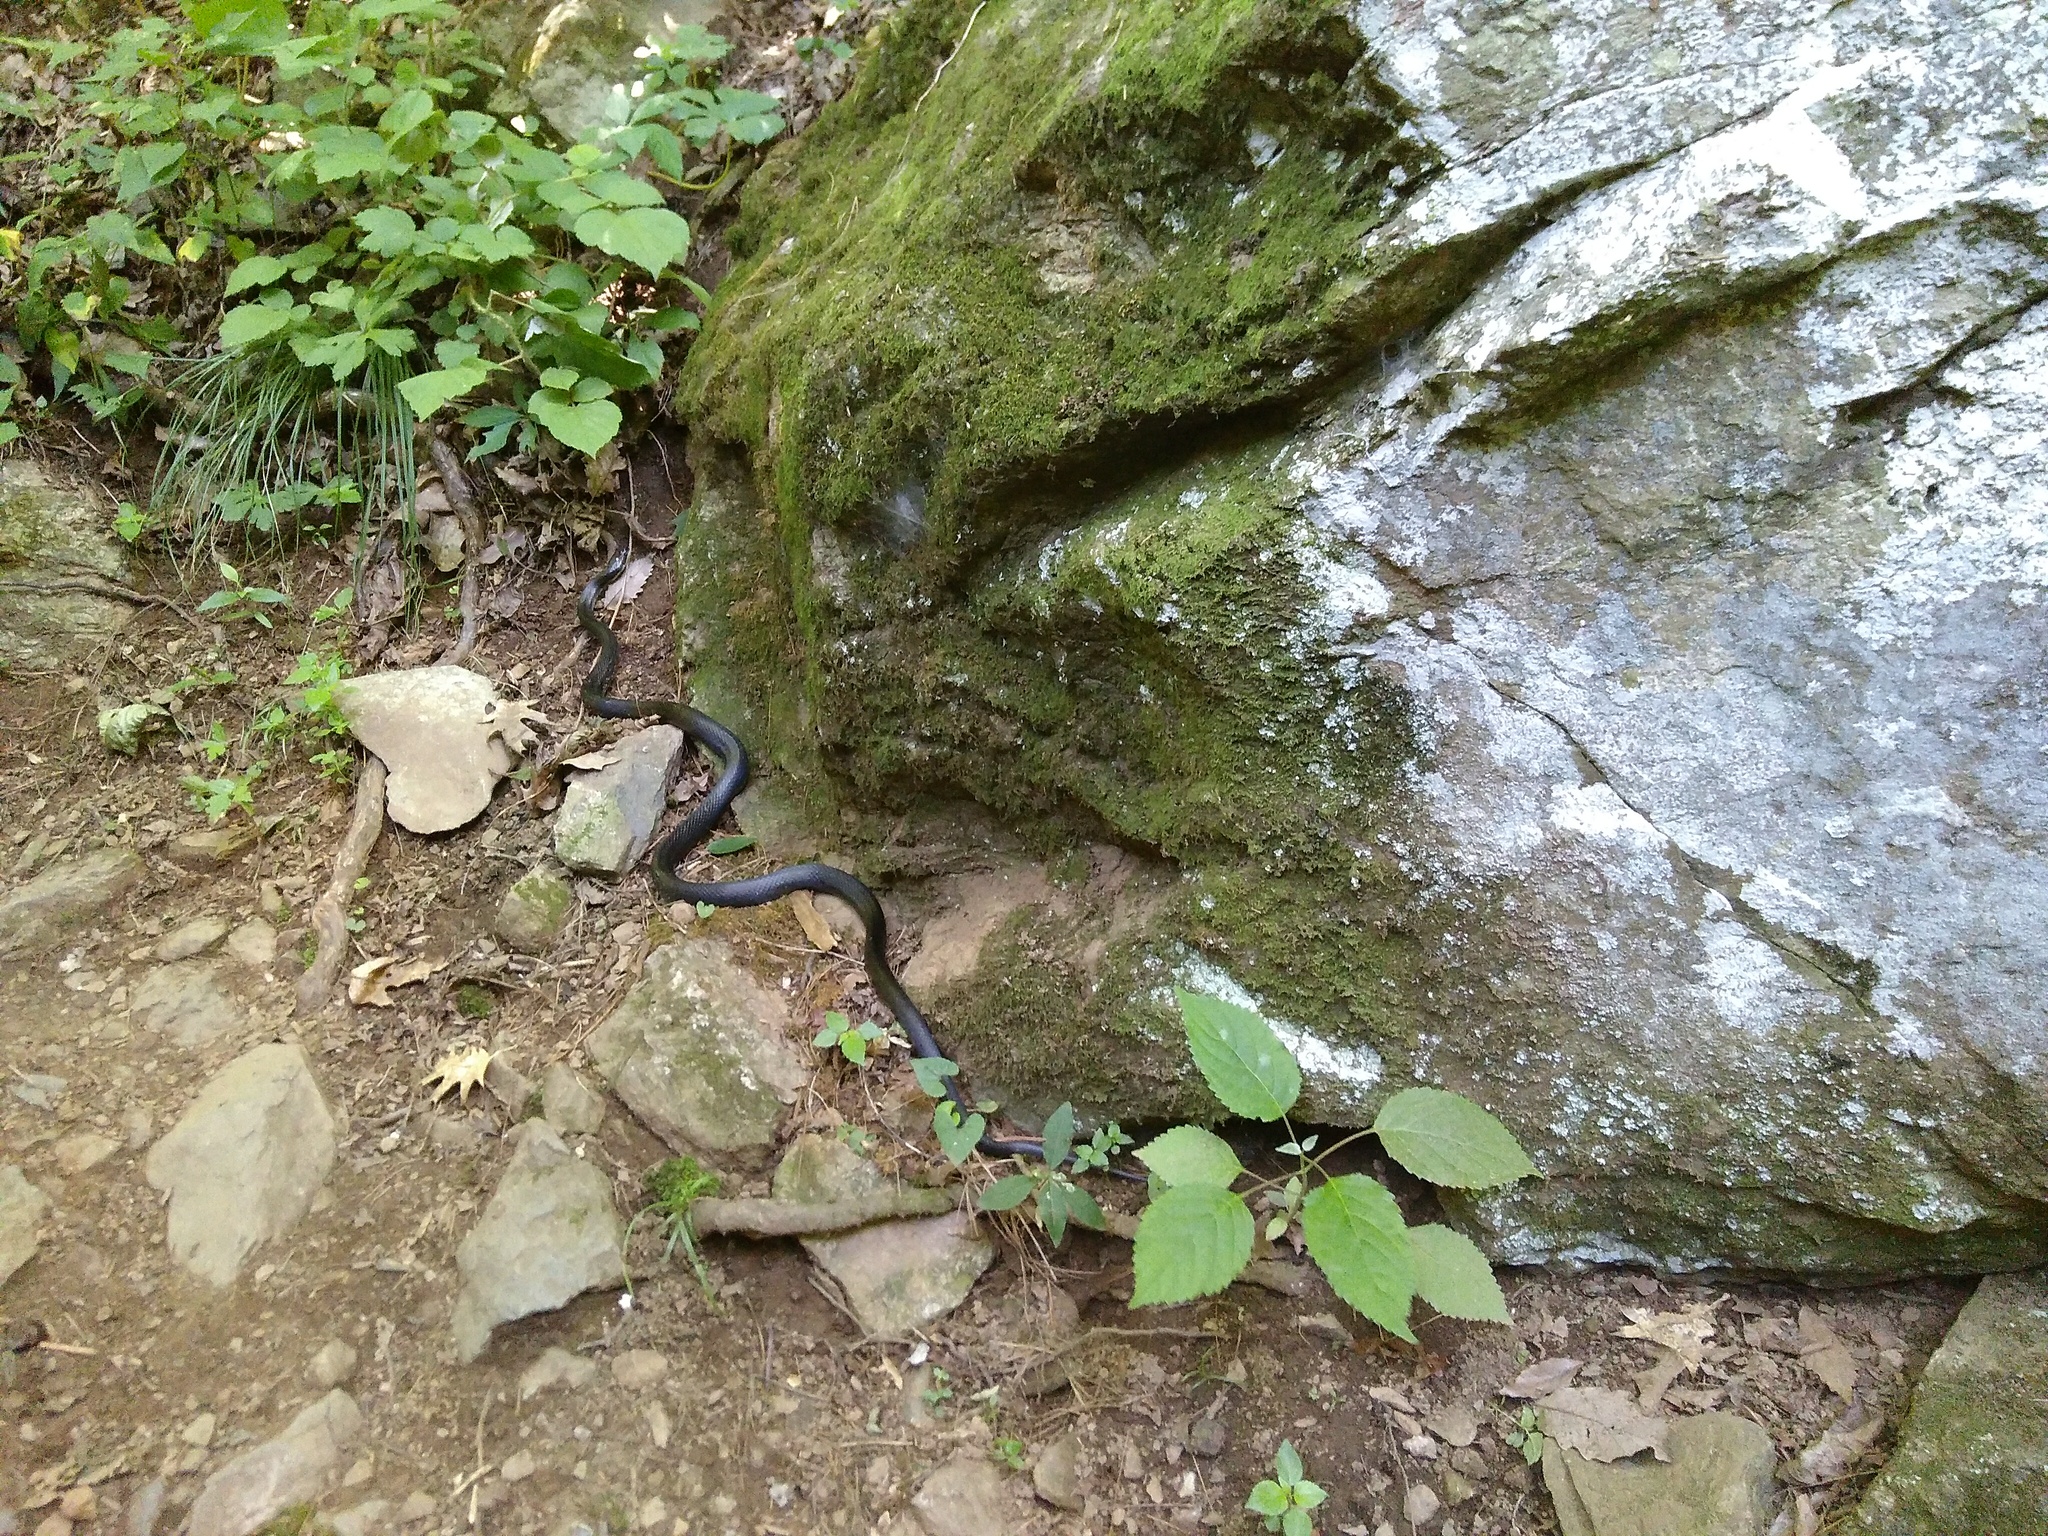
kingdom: Animalia
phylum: Chordata
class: Squamata
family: Colubridae
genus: Pantherophis
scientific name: Pantherophis alleghaniensis
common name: Eastern rat snake
